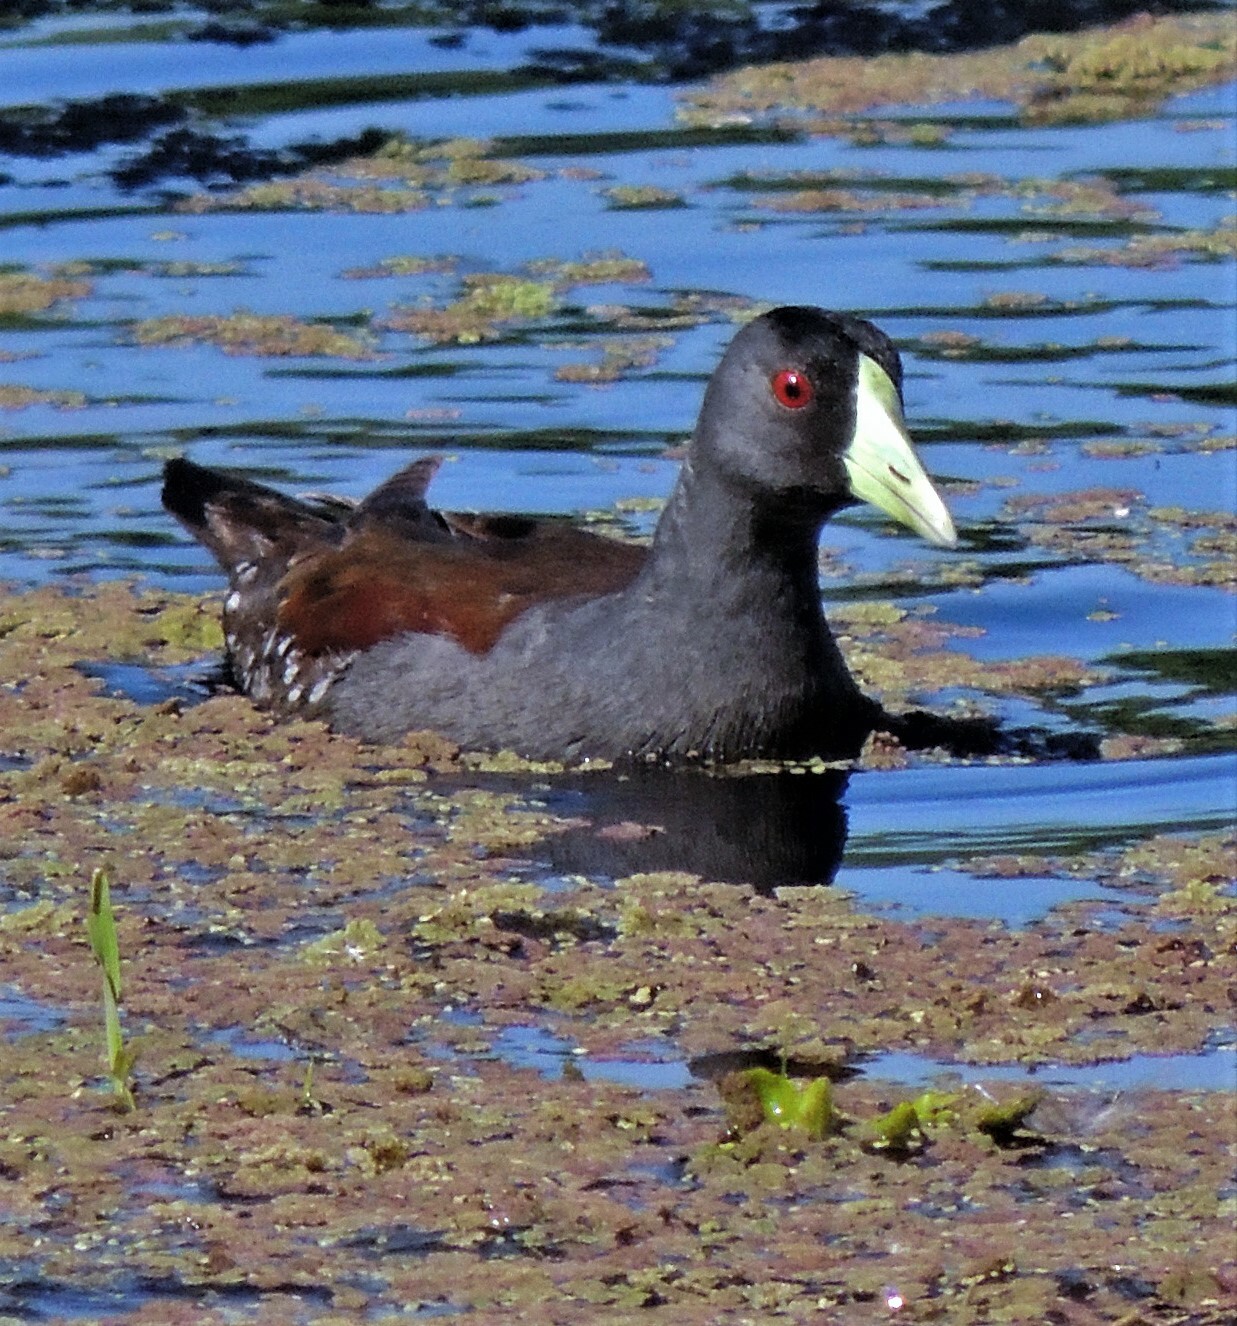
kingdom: Animalia
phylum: Chordata
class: Aves
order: Gruiformes
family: Rallidae
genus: Gallinula
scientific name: Gallinula melanops
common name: Spot-flanked gallinule
